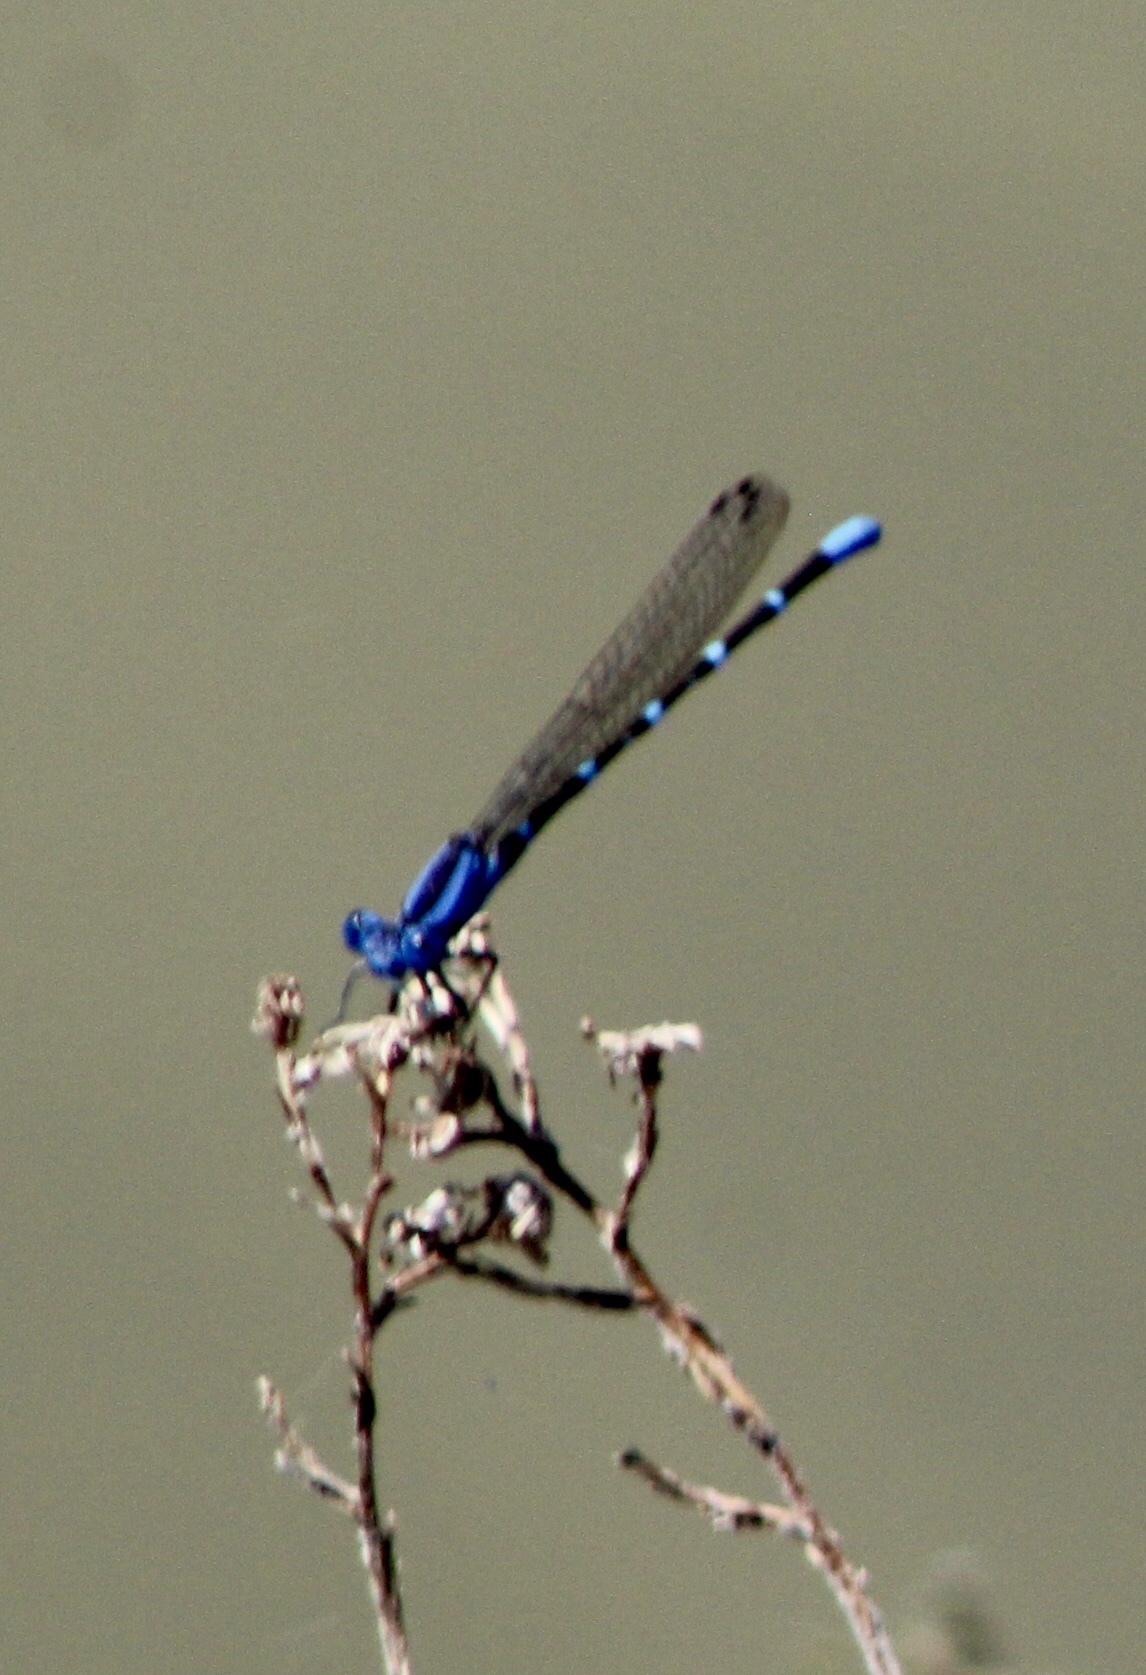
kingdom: Animalia
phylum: Arthropoda
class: Insecta
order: Odonata
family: Coenagrionidae
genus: Argia
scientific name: Argia sedula
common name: Blue-ringed dancer
